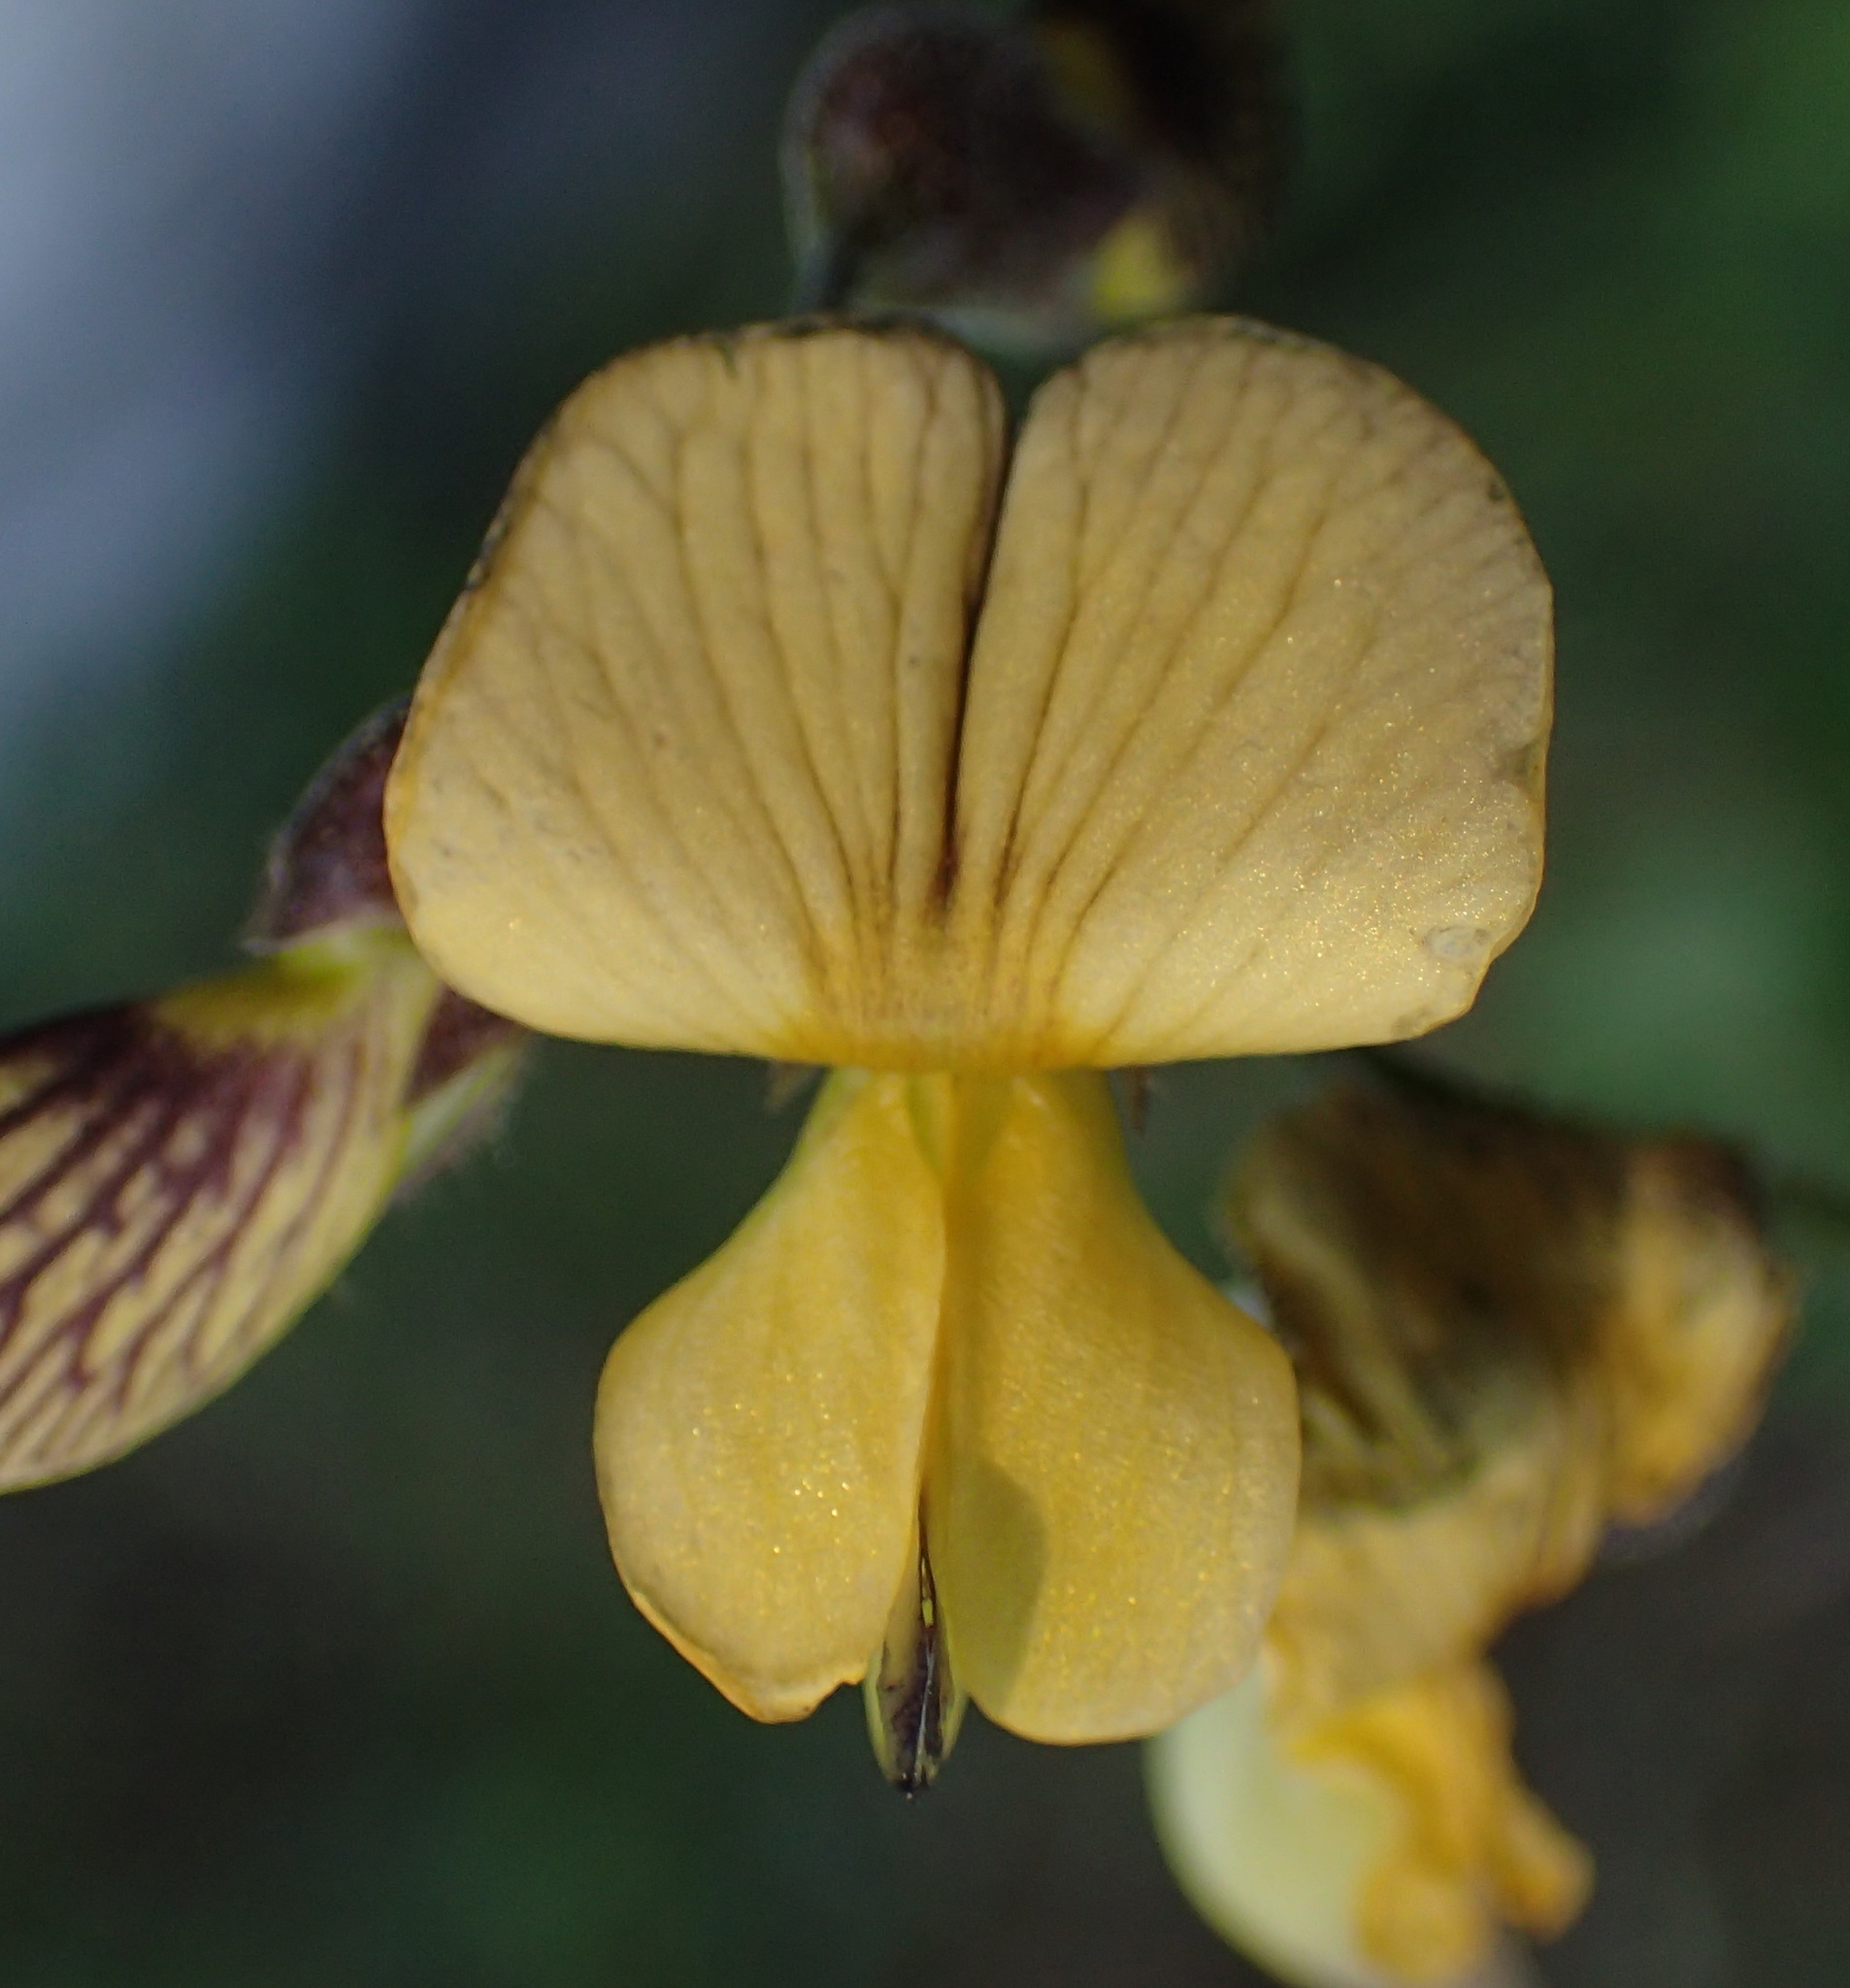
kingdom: Plantae
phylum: Tracheophyta
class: Magnoliopsida
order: Fabales
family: Fabaceae
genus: Rhynchosia
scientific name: Rhynchosia caribaea
